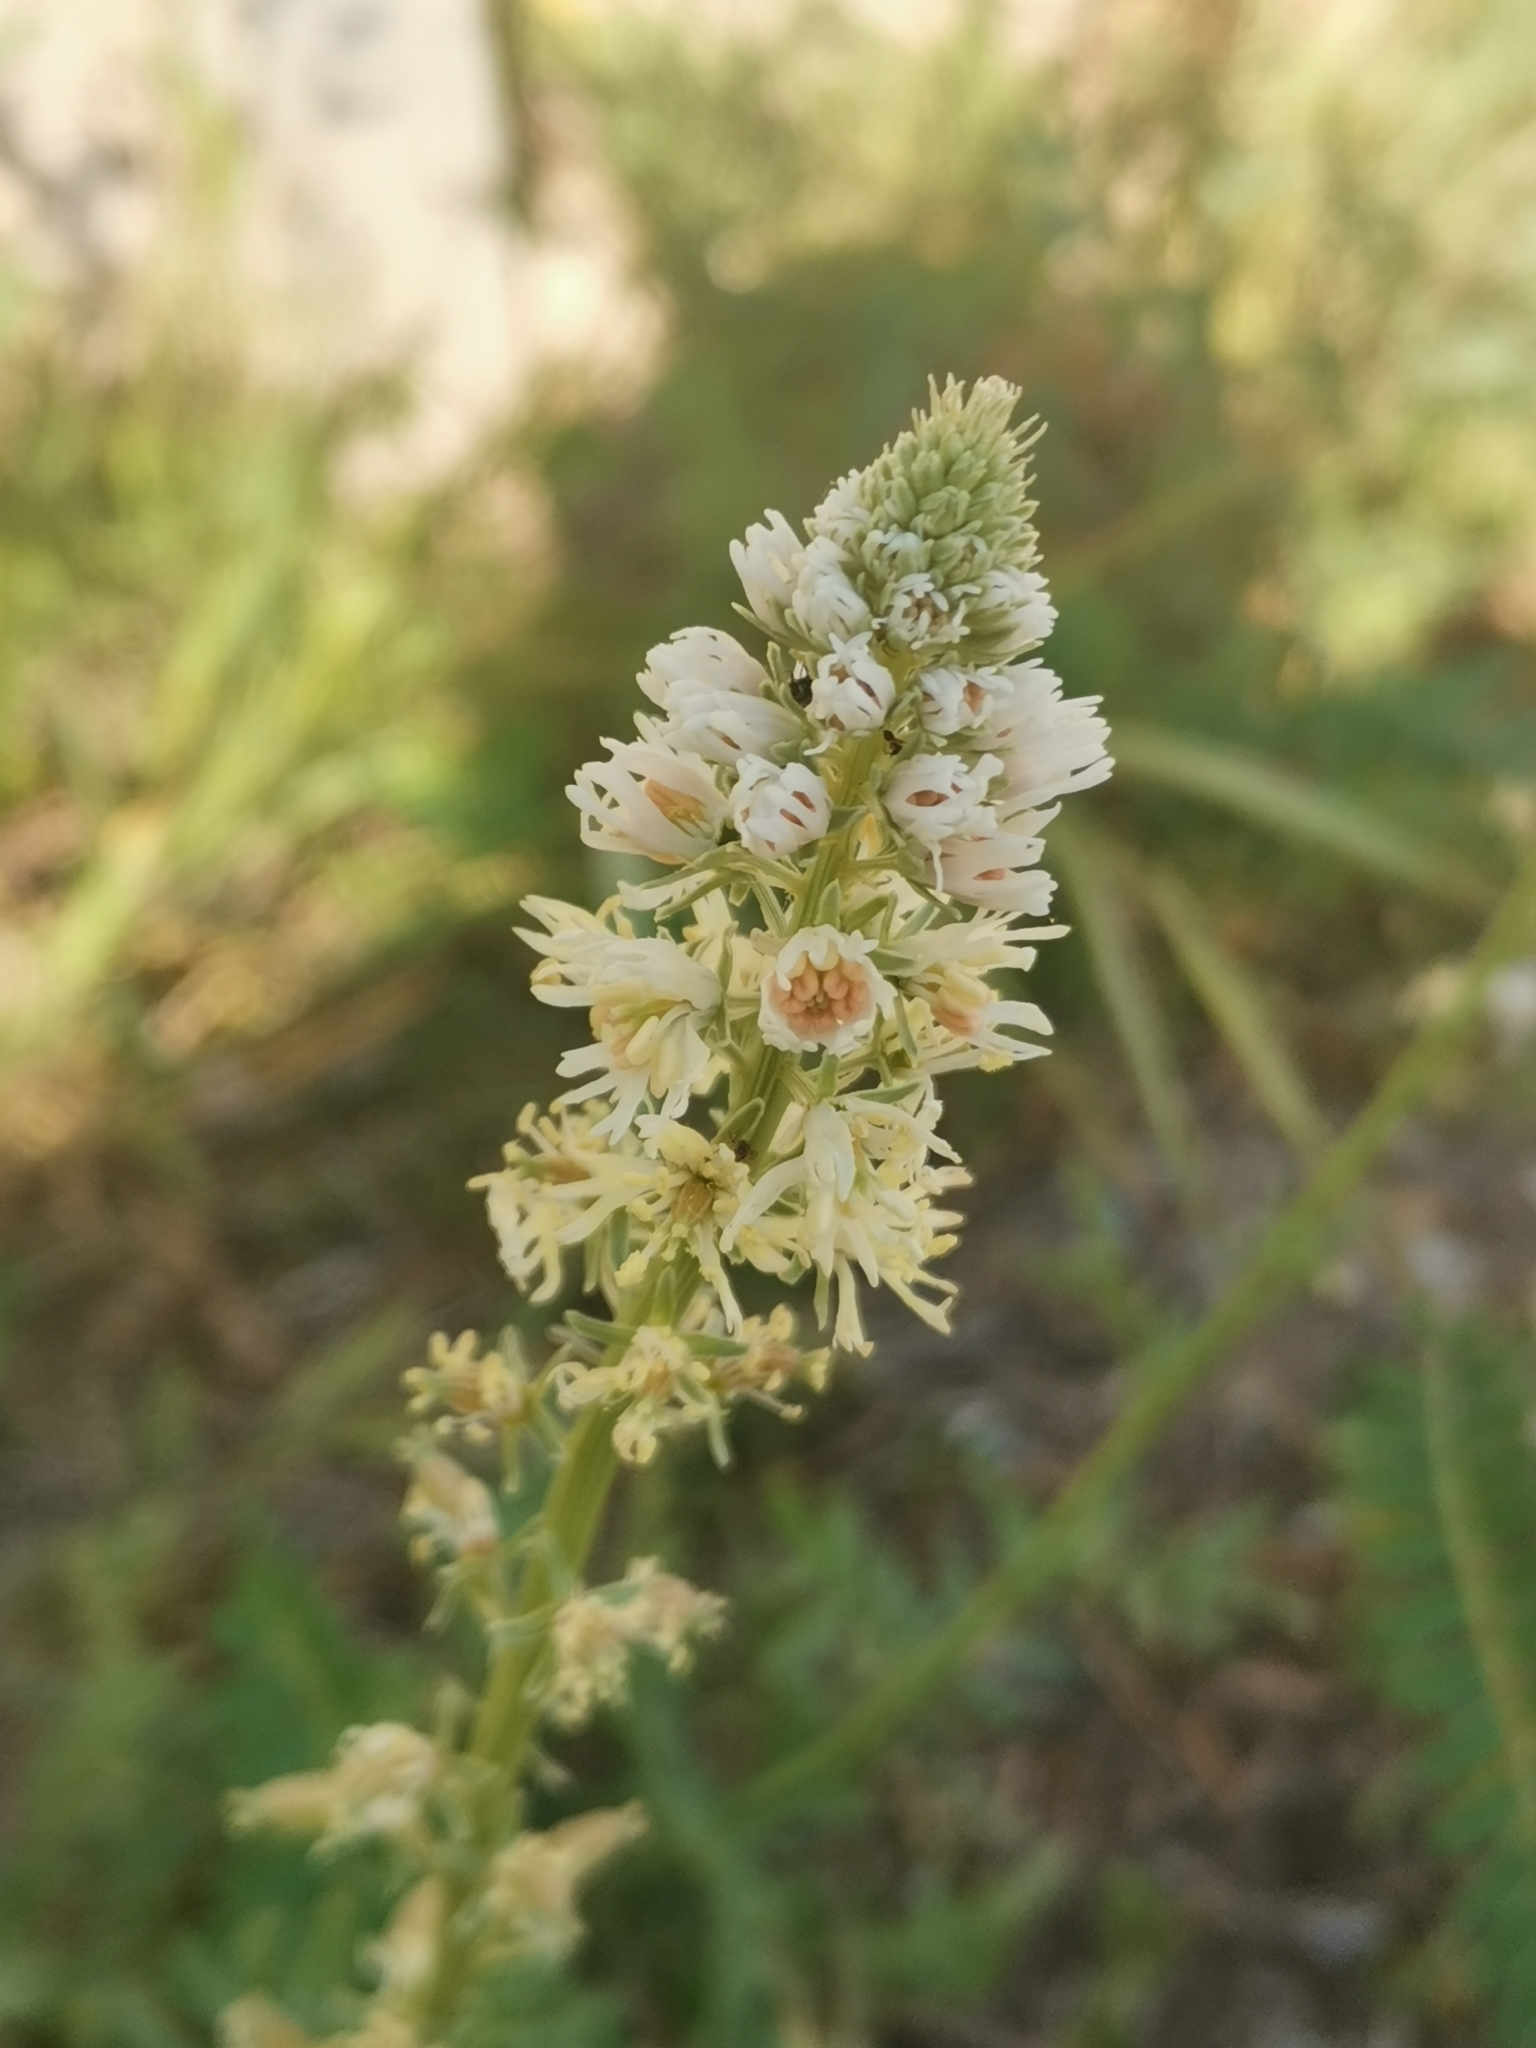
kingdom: Plantae
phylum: Tracheophyta
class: Magnoliopsida
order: Brassicales
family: Resedaceae
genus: Reseda
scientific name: Reseda alba
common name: White mignonette
